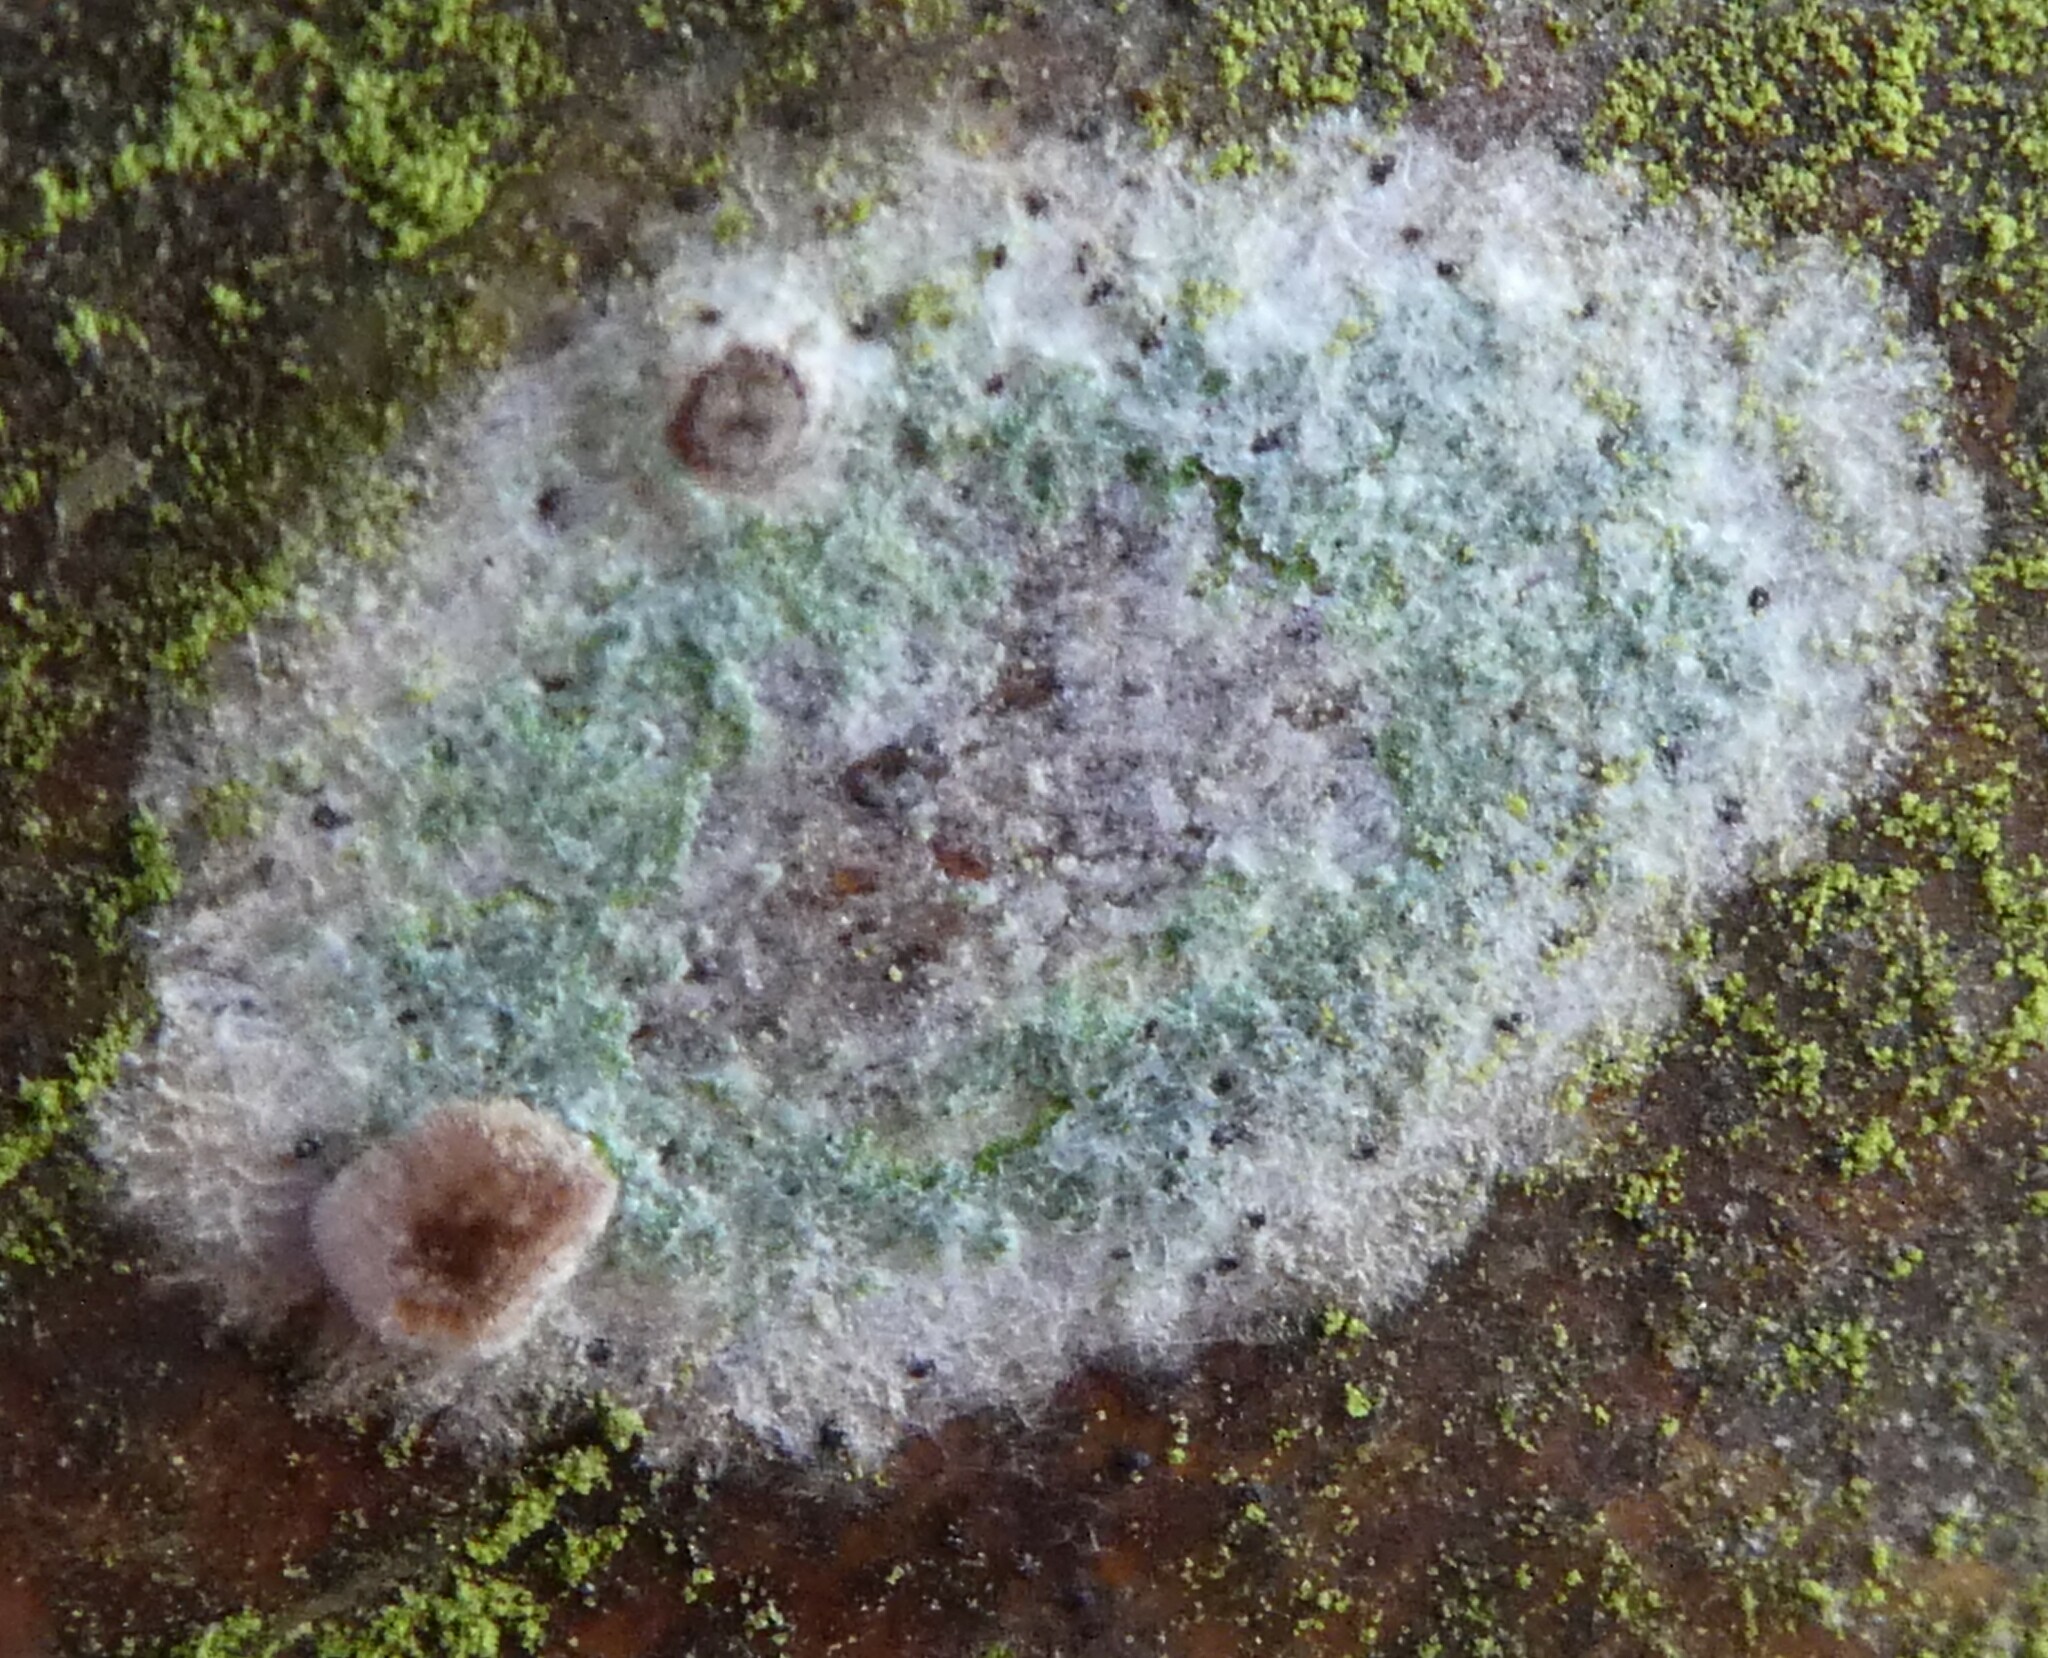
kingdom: Fungi
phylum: Basidiomycota
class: Agaricomycetes
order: Atheliales
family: Atheliaceae
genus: Athelia
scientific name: Athelia arachnoidea
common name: Candelabra duster
